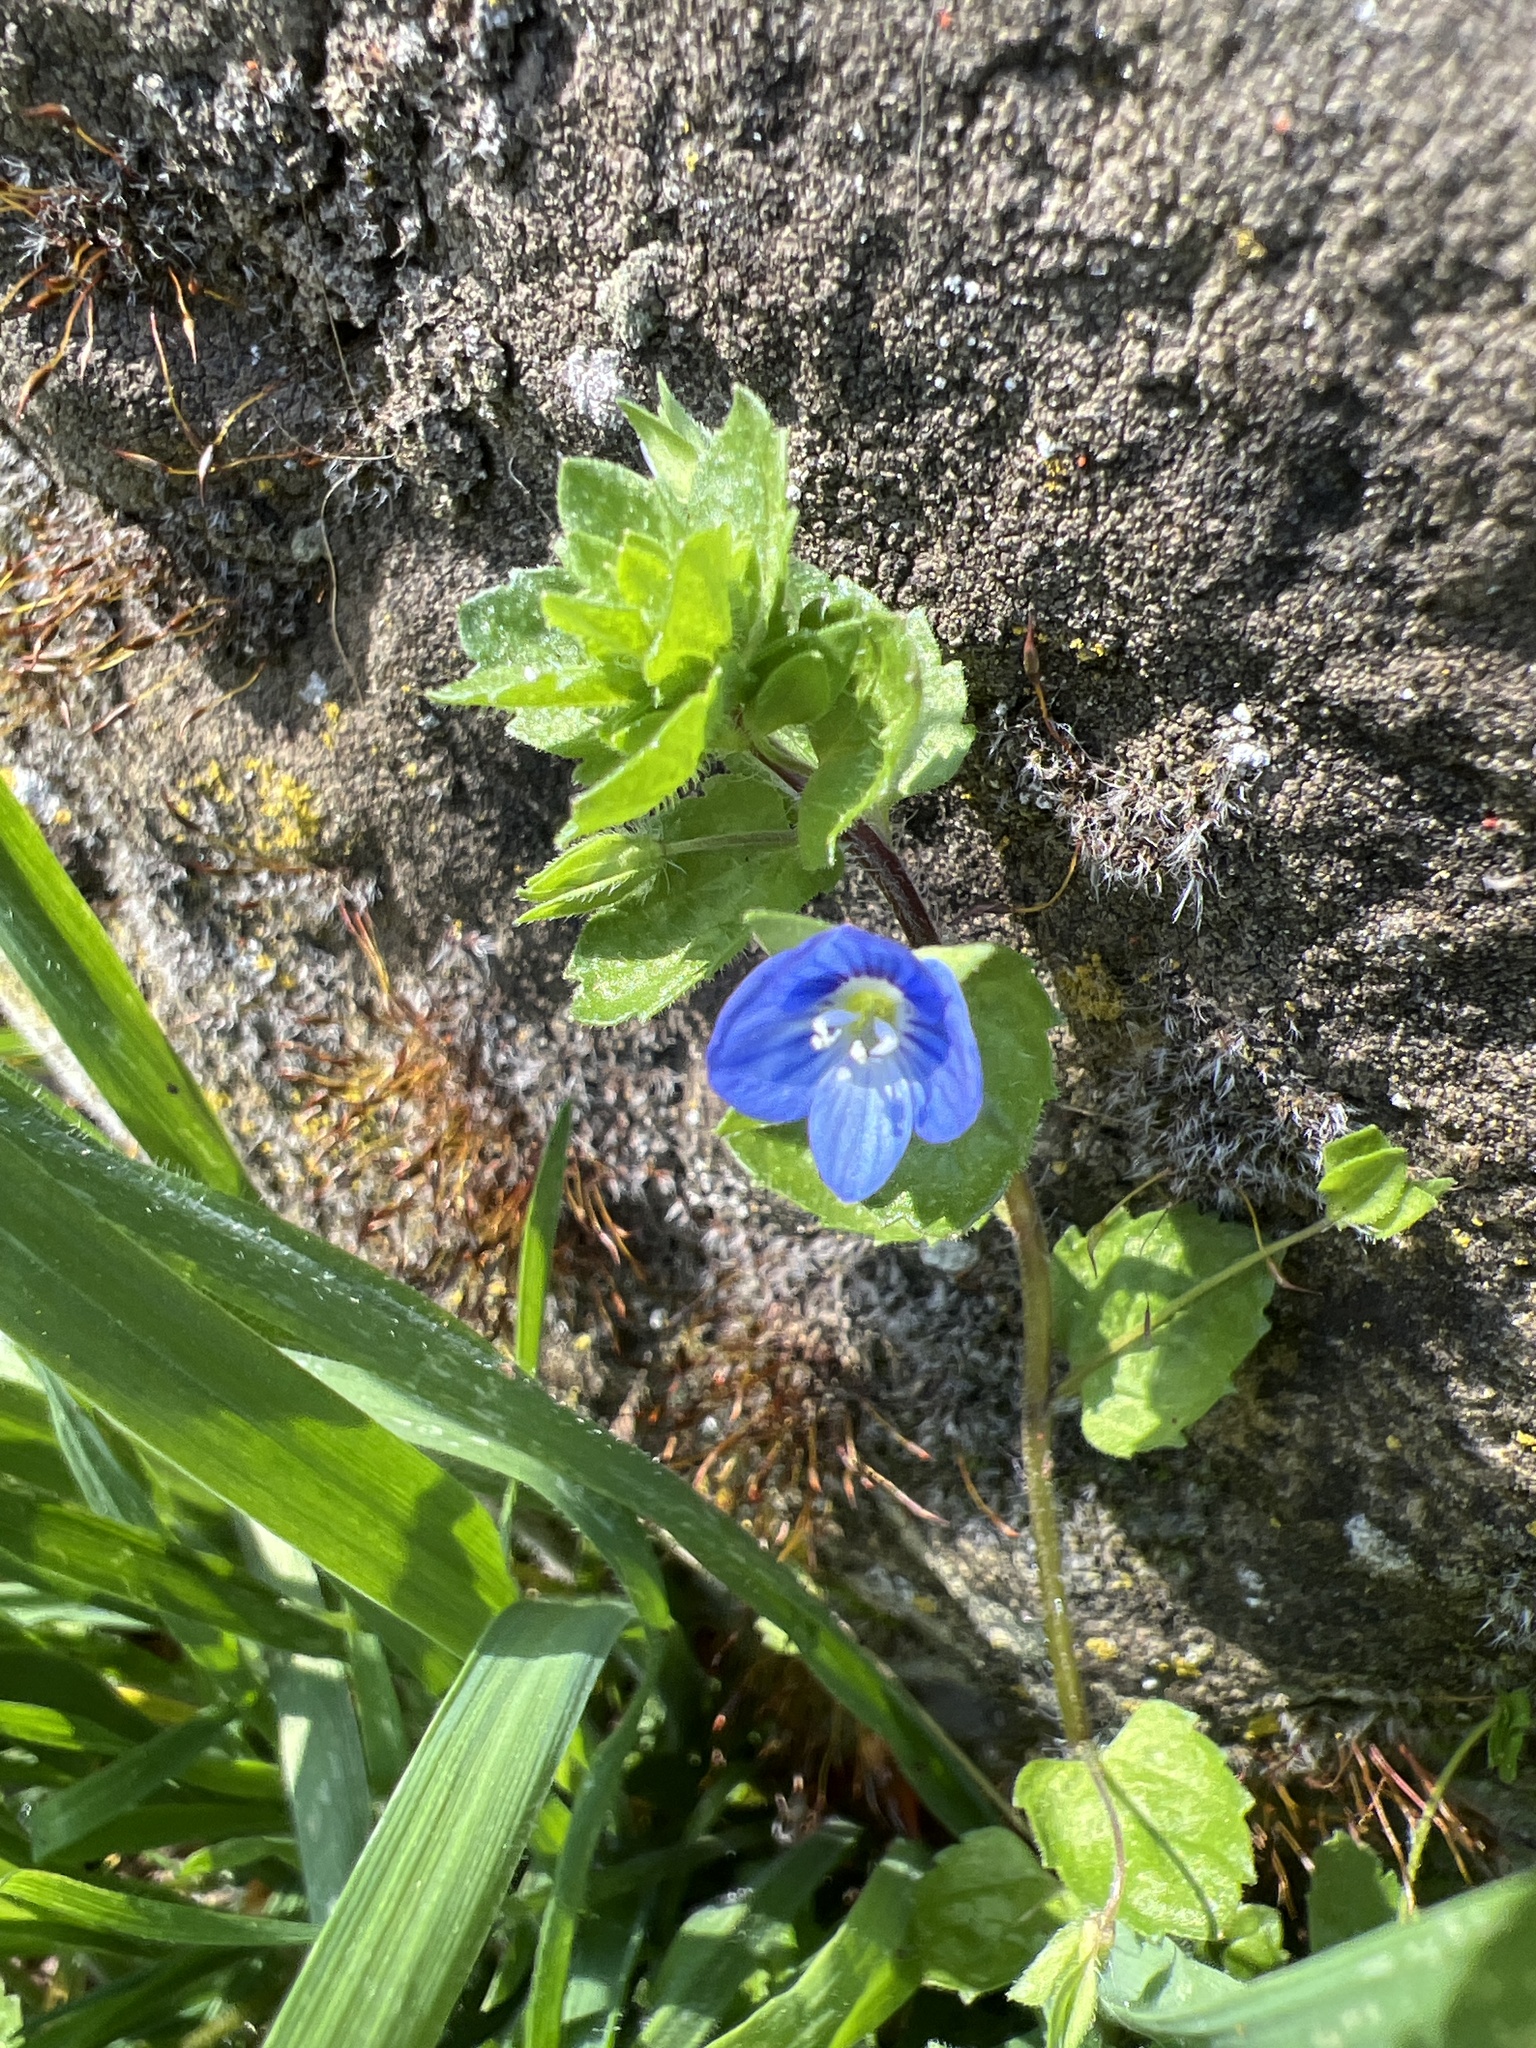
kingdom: Plantae
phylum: Tracheophyta
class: Magnoliopsida
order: Lamiales
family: Plantaginaceae
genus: Veronica
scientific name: Veronica persica
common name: Common field-speedwell
